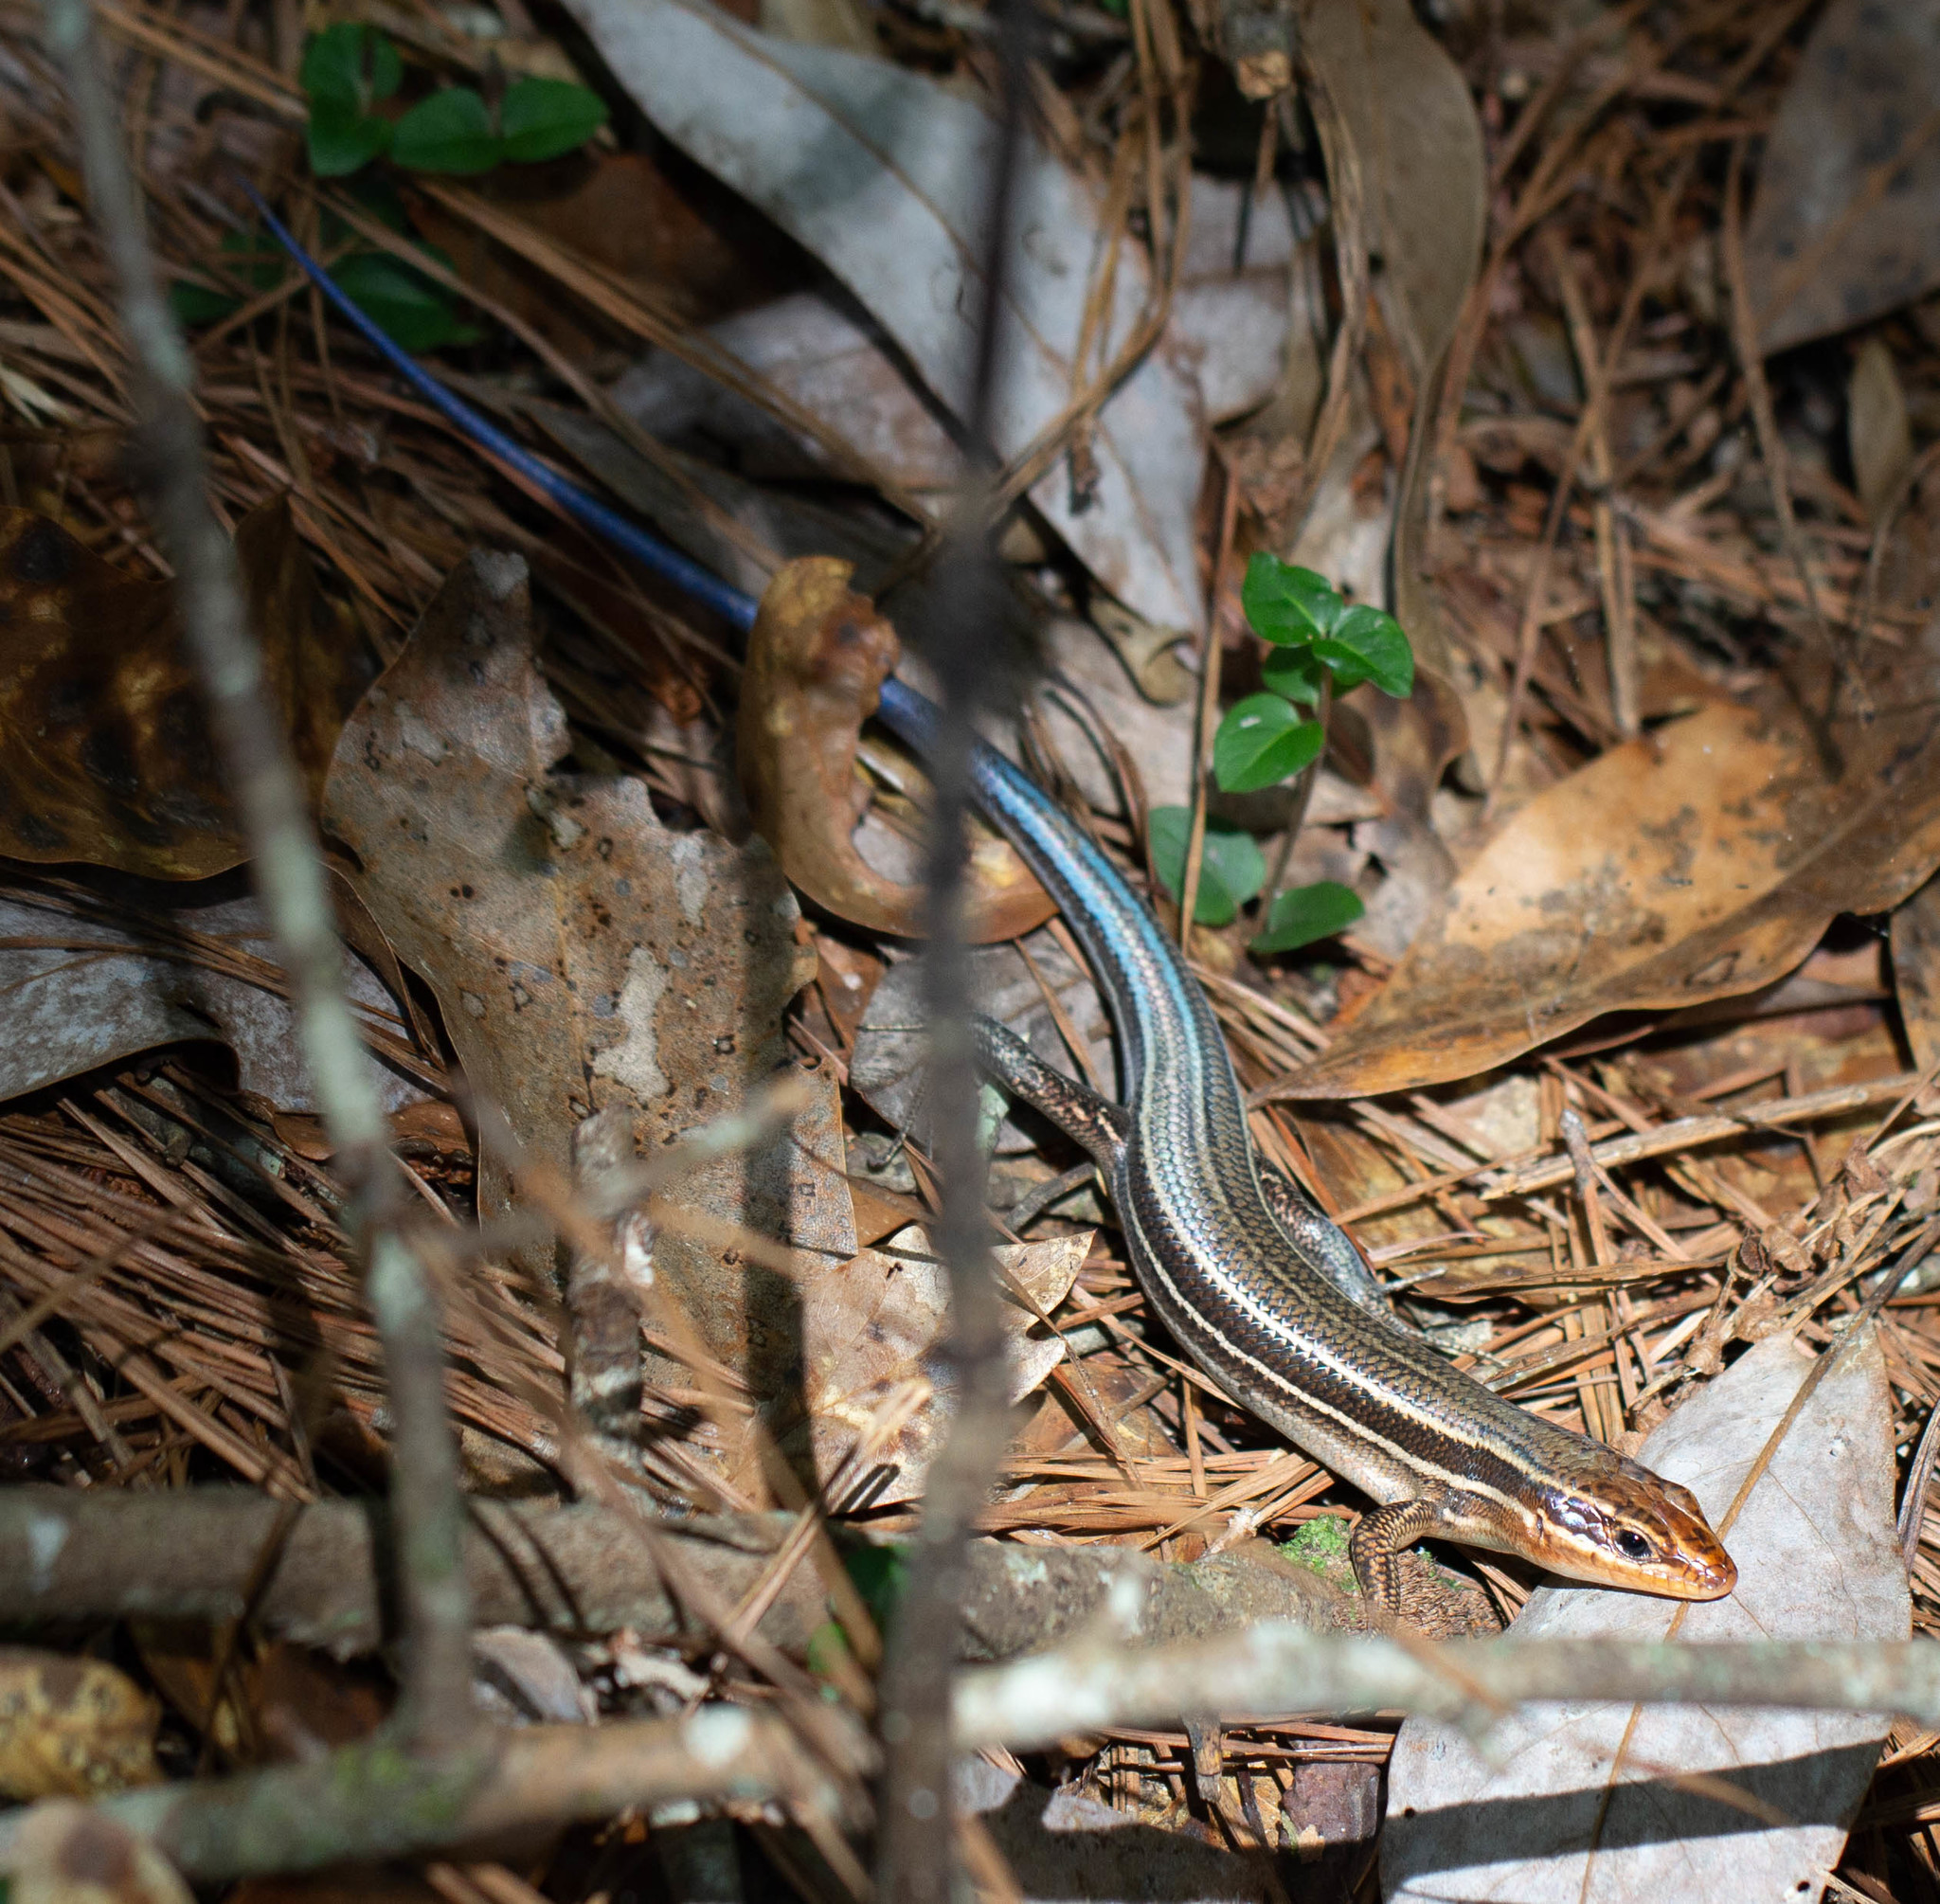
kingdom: Animalia
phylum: Chordata
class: Squamata
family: Scincidae
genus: Plestiodon
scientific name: Plestiodon laticeps
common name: Broadhead skink
